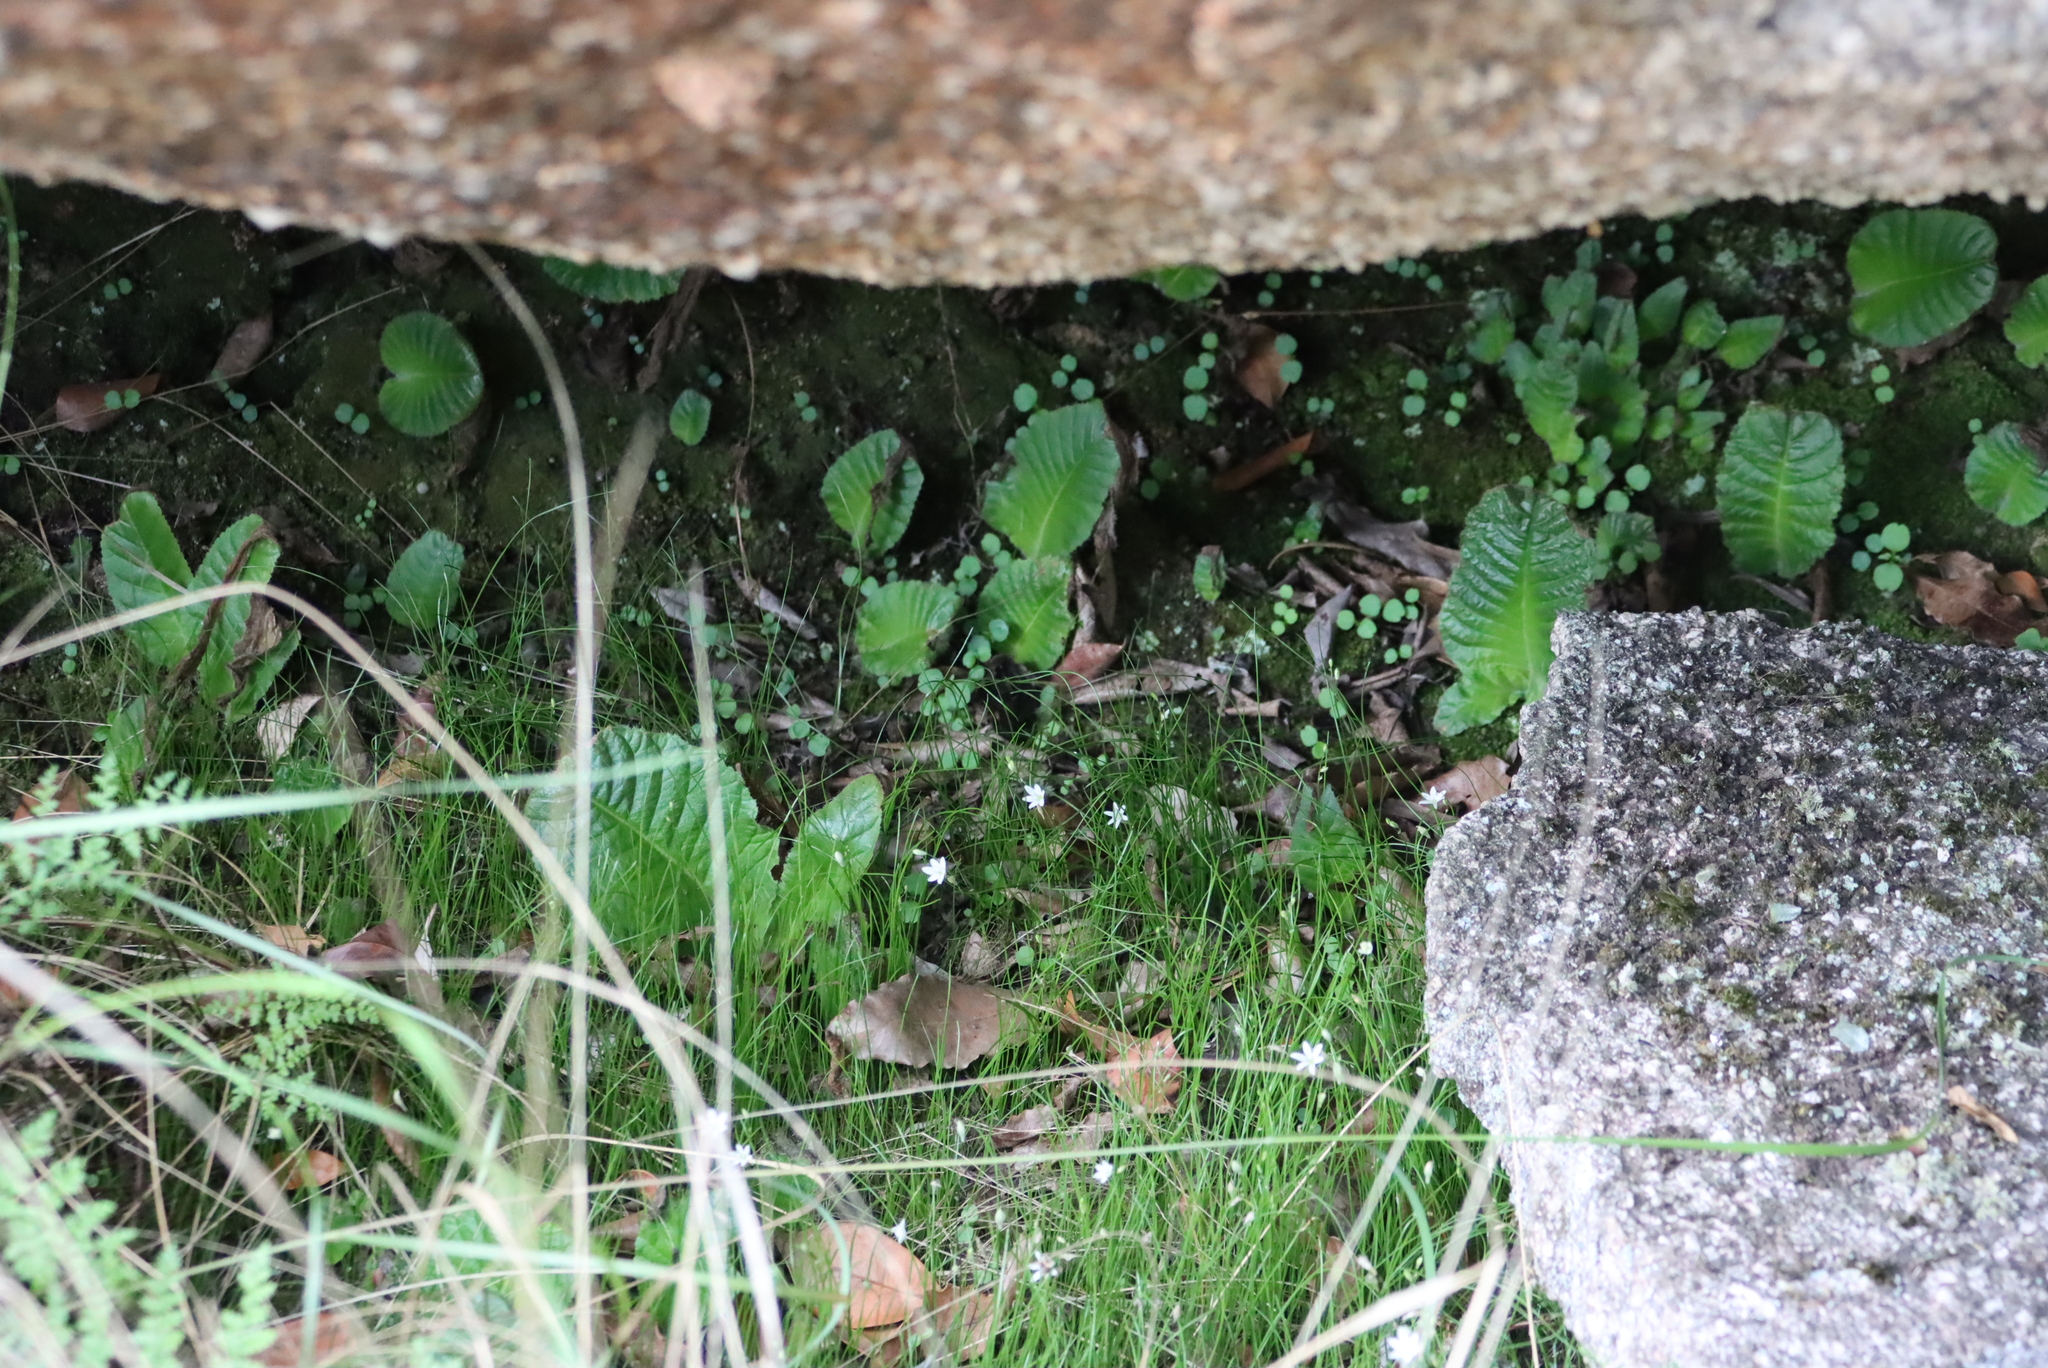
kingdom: Plantae
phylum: Tracheophyta
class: Magnoliopsida
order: Lamiales
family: Gesneriaceae
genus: Streptocarpus
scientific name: Streptocarpus davyi
